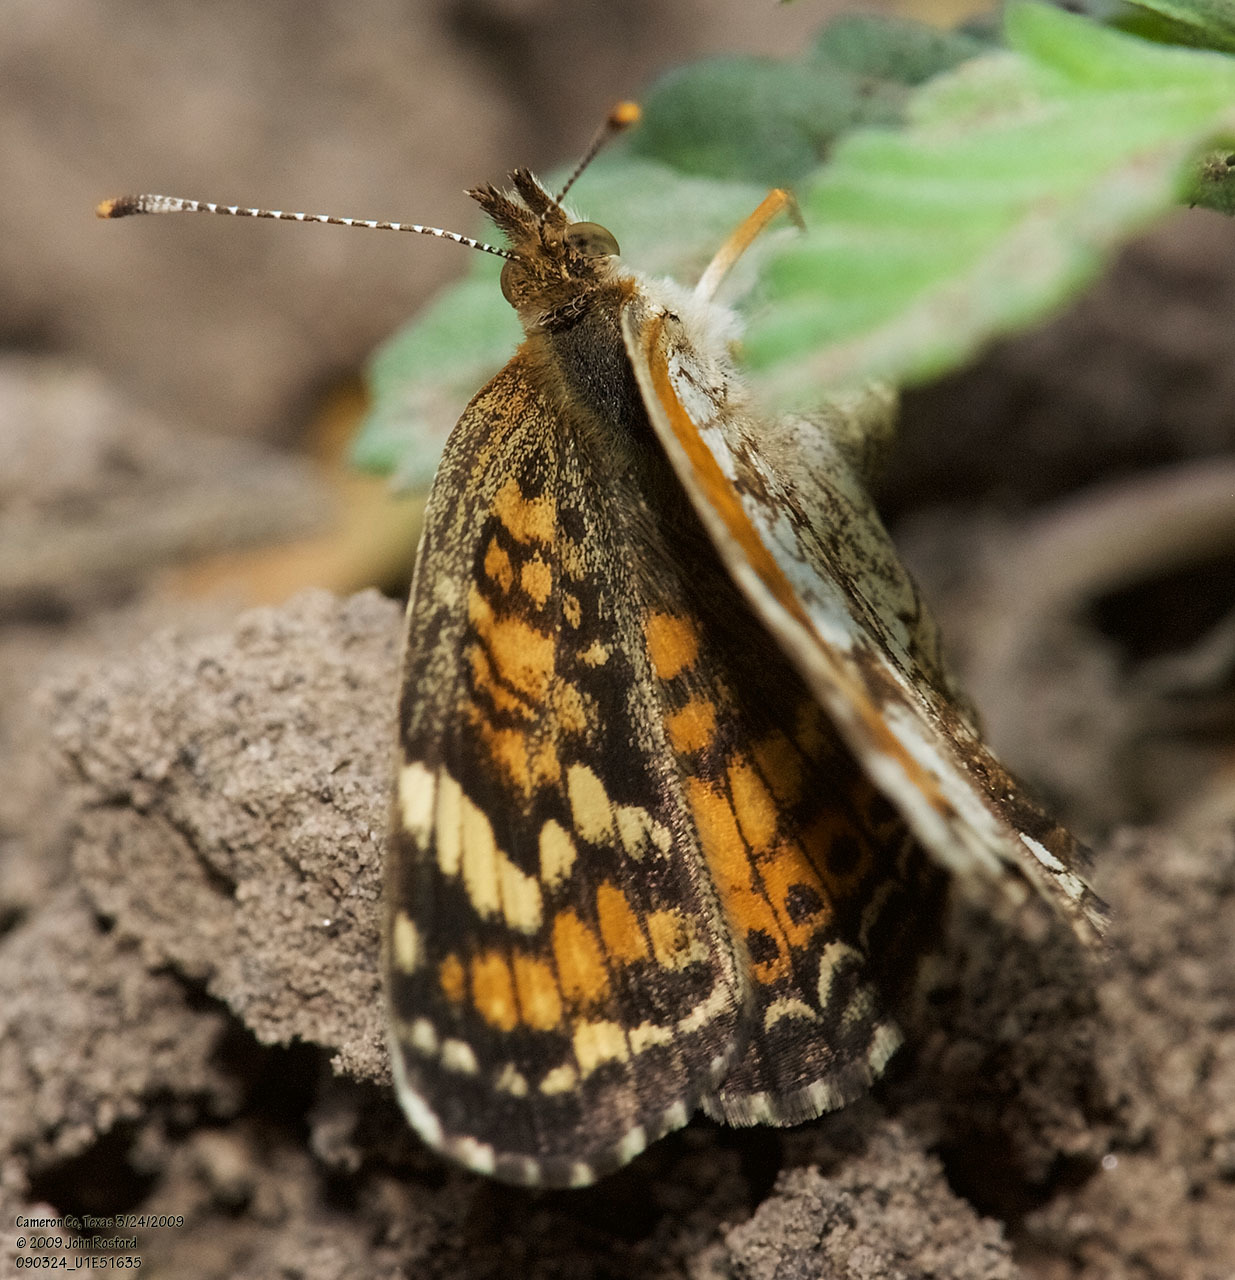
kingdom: Animalia
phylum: Arthropoda
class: Insecta
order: Lepidoptera
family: Nymphalidae
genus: Phyciodes
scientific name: Phyciodes phaon
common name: Phaon crescent
